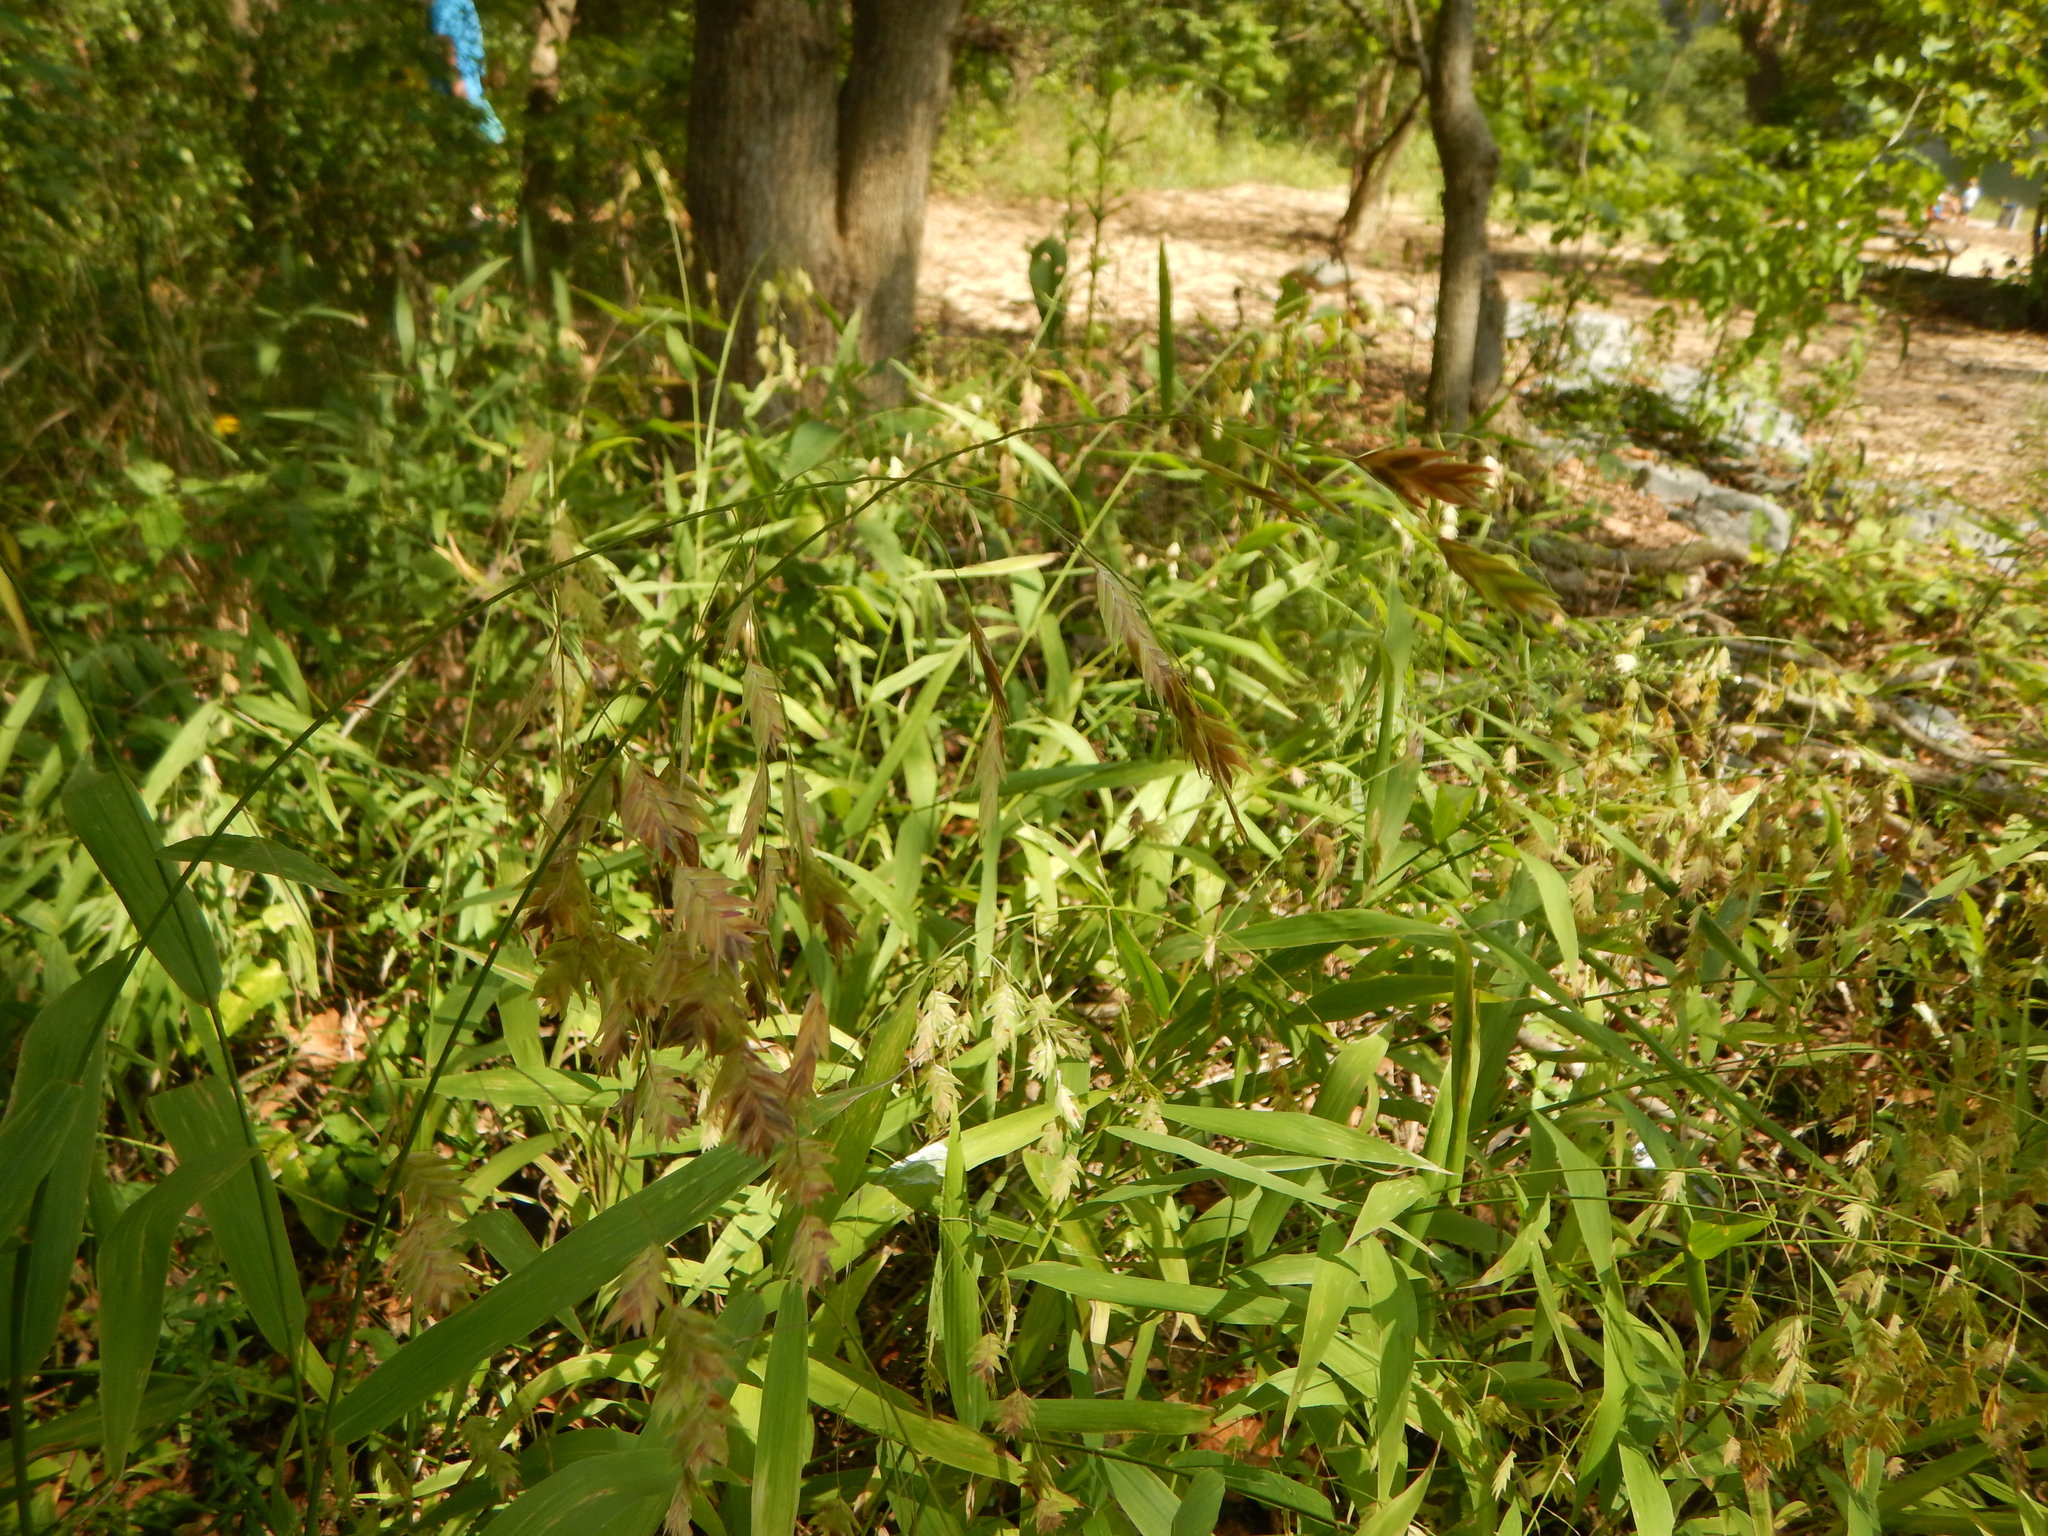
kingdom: Plantae
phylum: Tracheophyta
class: Liliopsida
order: Poales
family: Poaceae
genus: Chasmanthium
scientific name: Chasmanthium latifolium
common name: Broad-leaved chasmanthium
